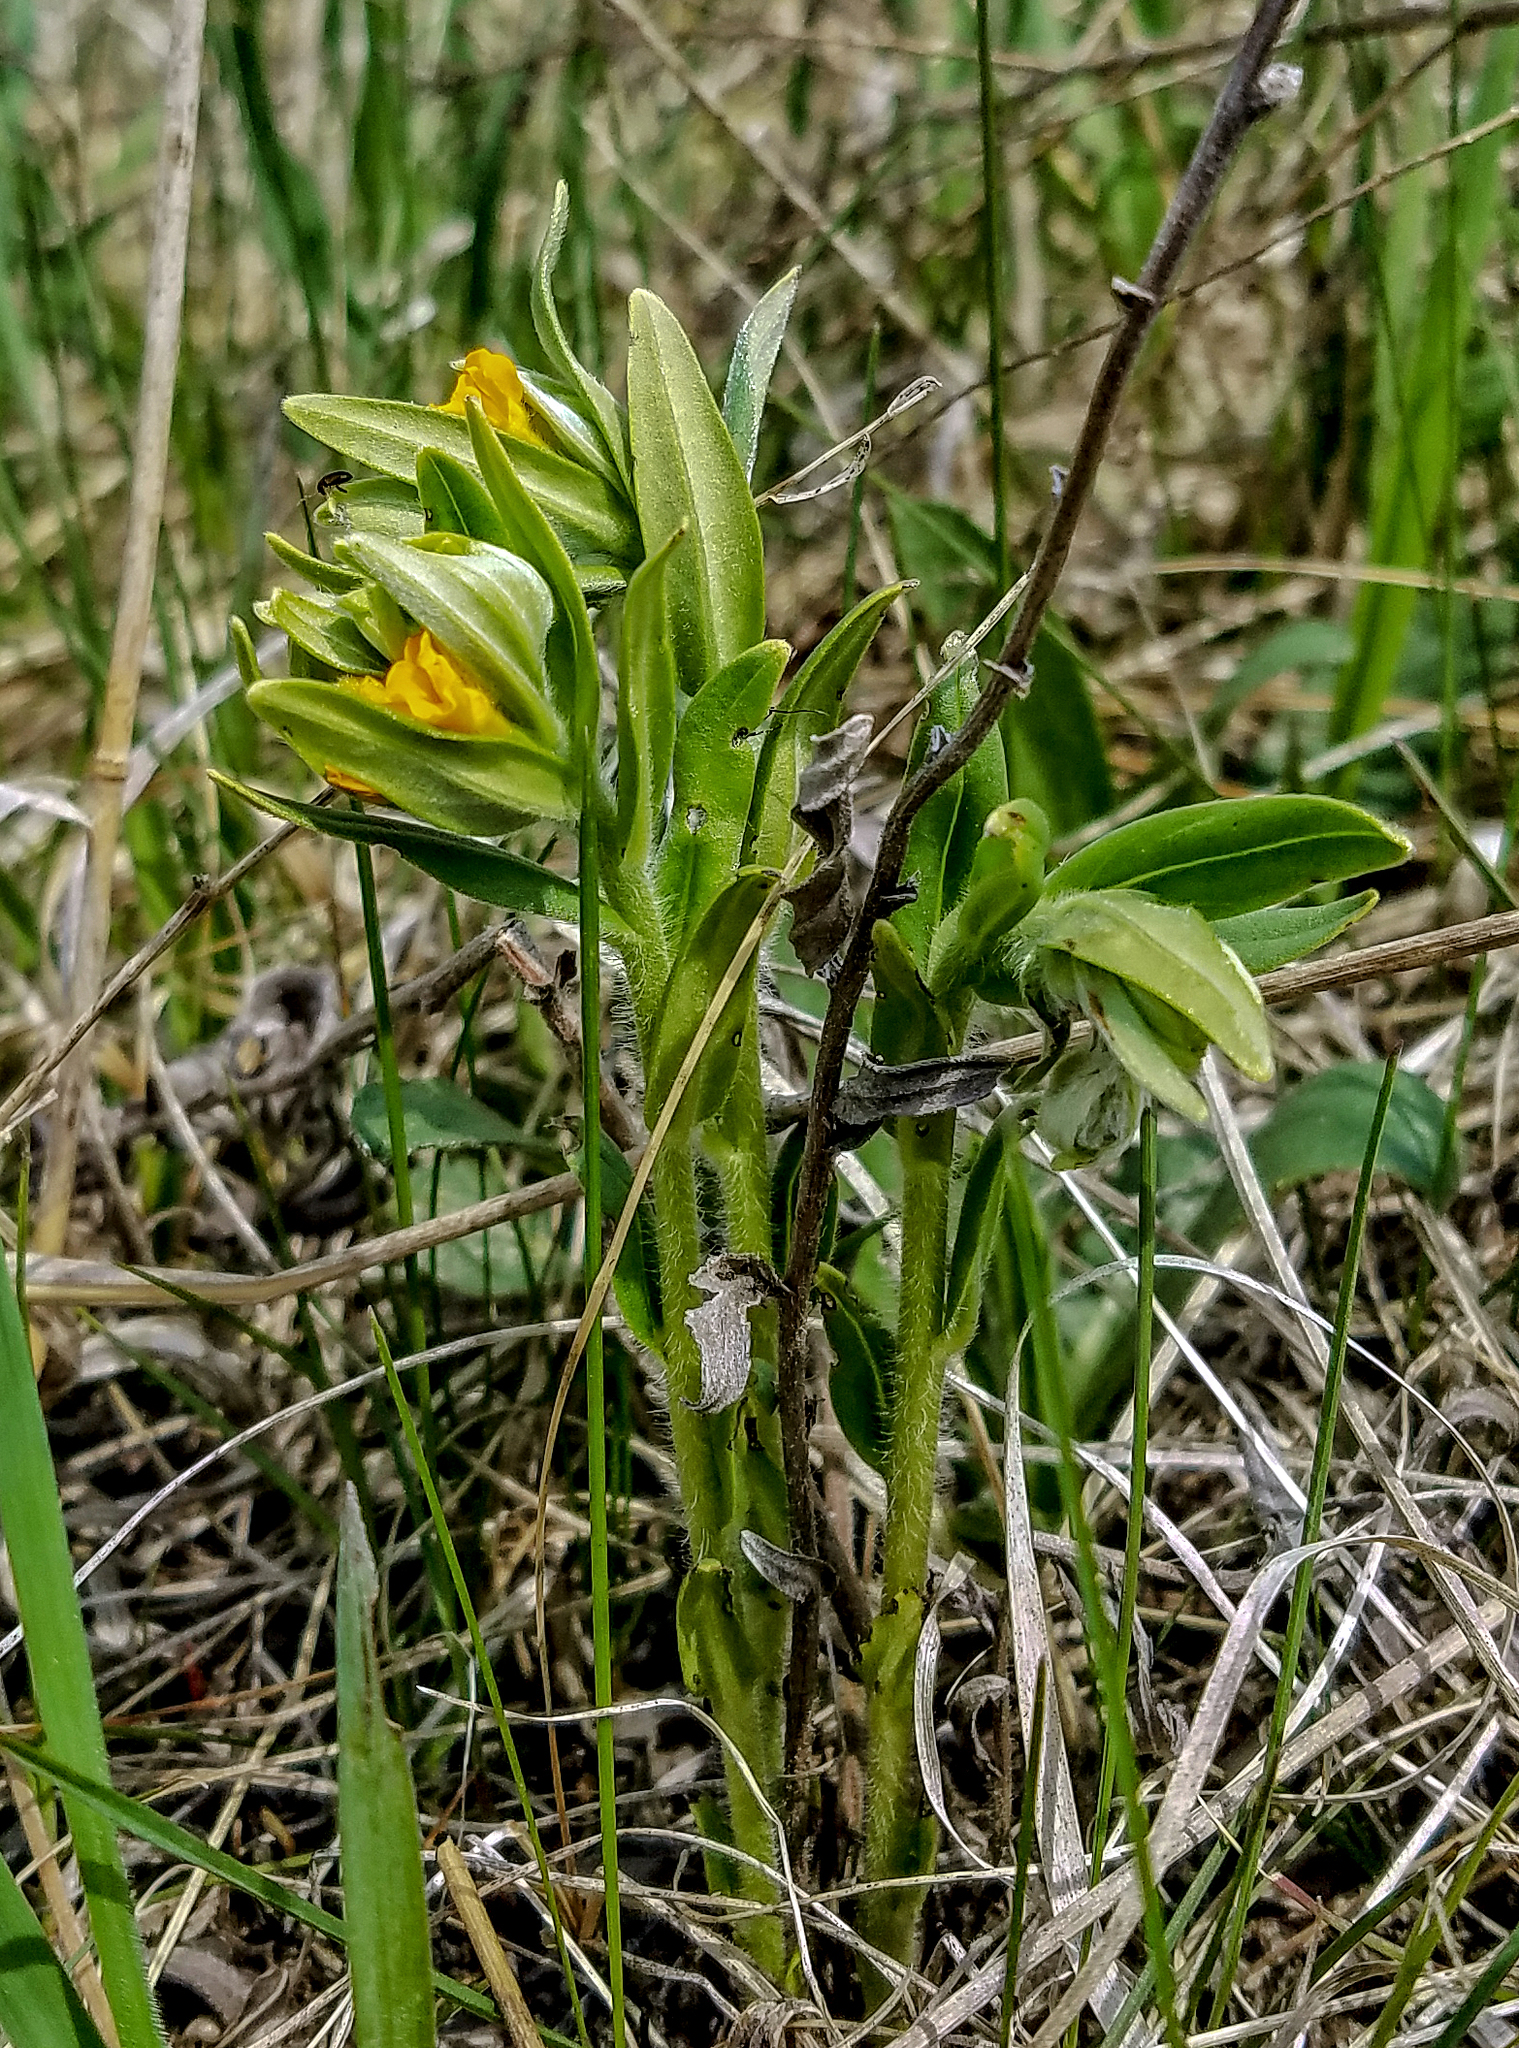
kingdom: Plantae
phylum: Tracheophyta
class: Magnoliopsida
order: Boraginales
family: Boraginaceae
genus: Lithospermum
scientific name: Lithospermum canescens
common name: Hoary puccoon
